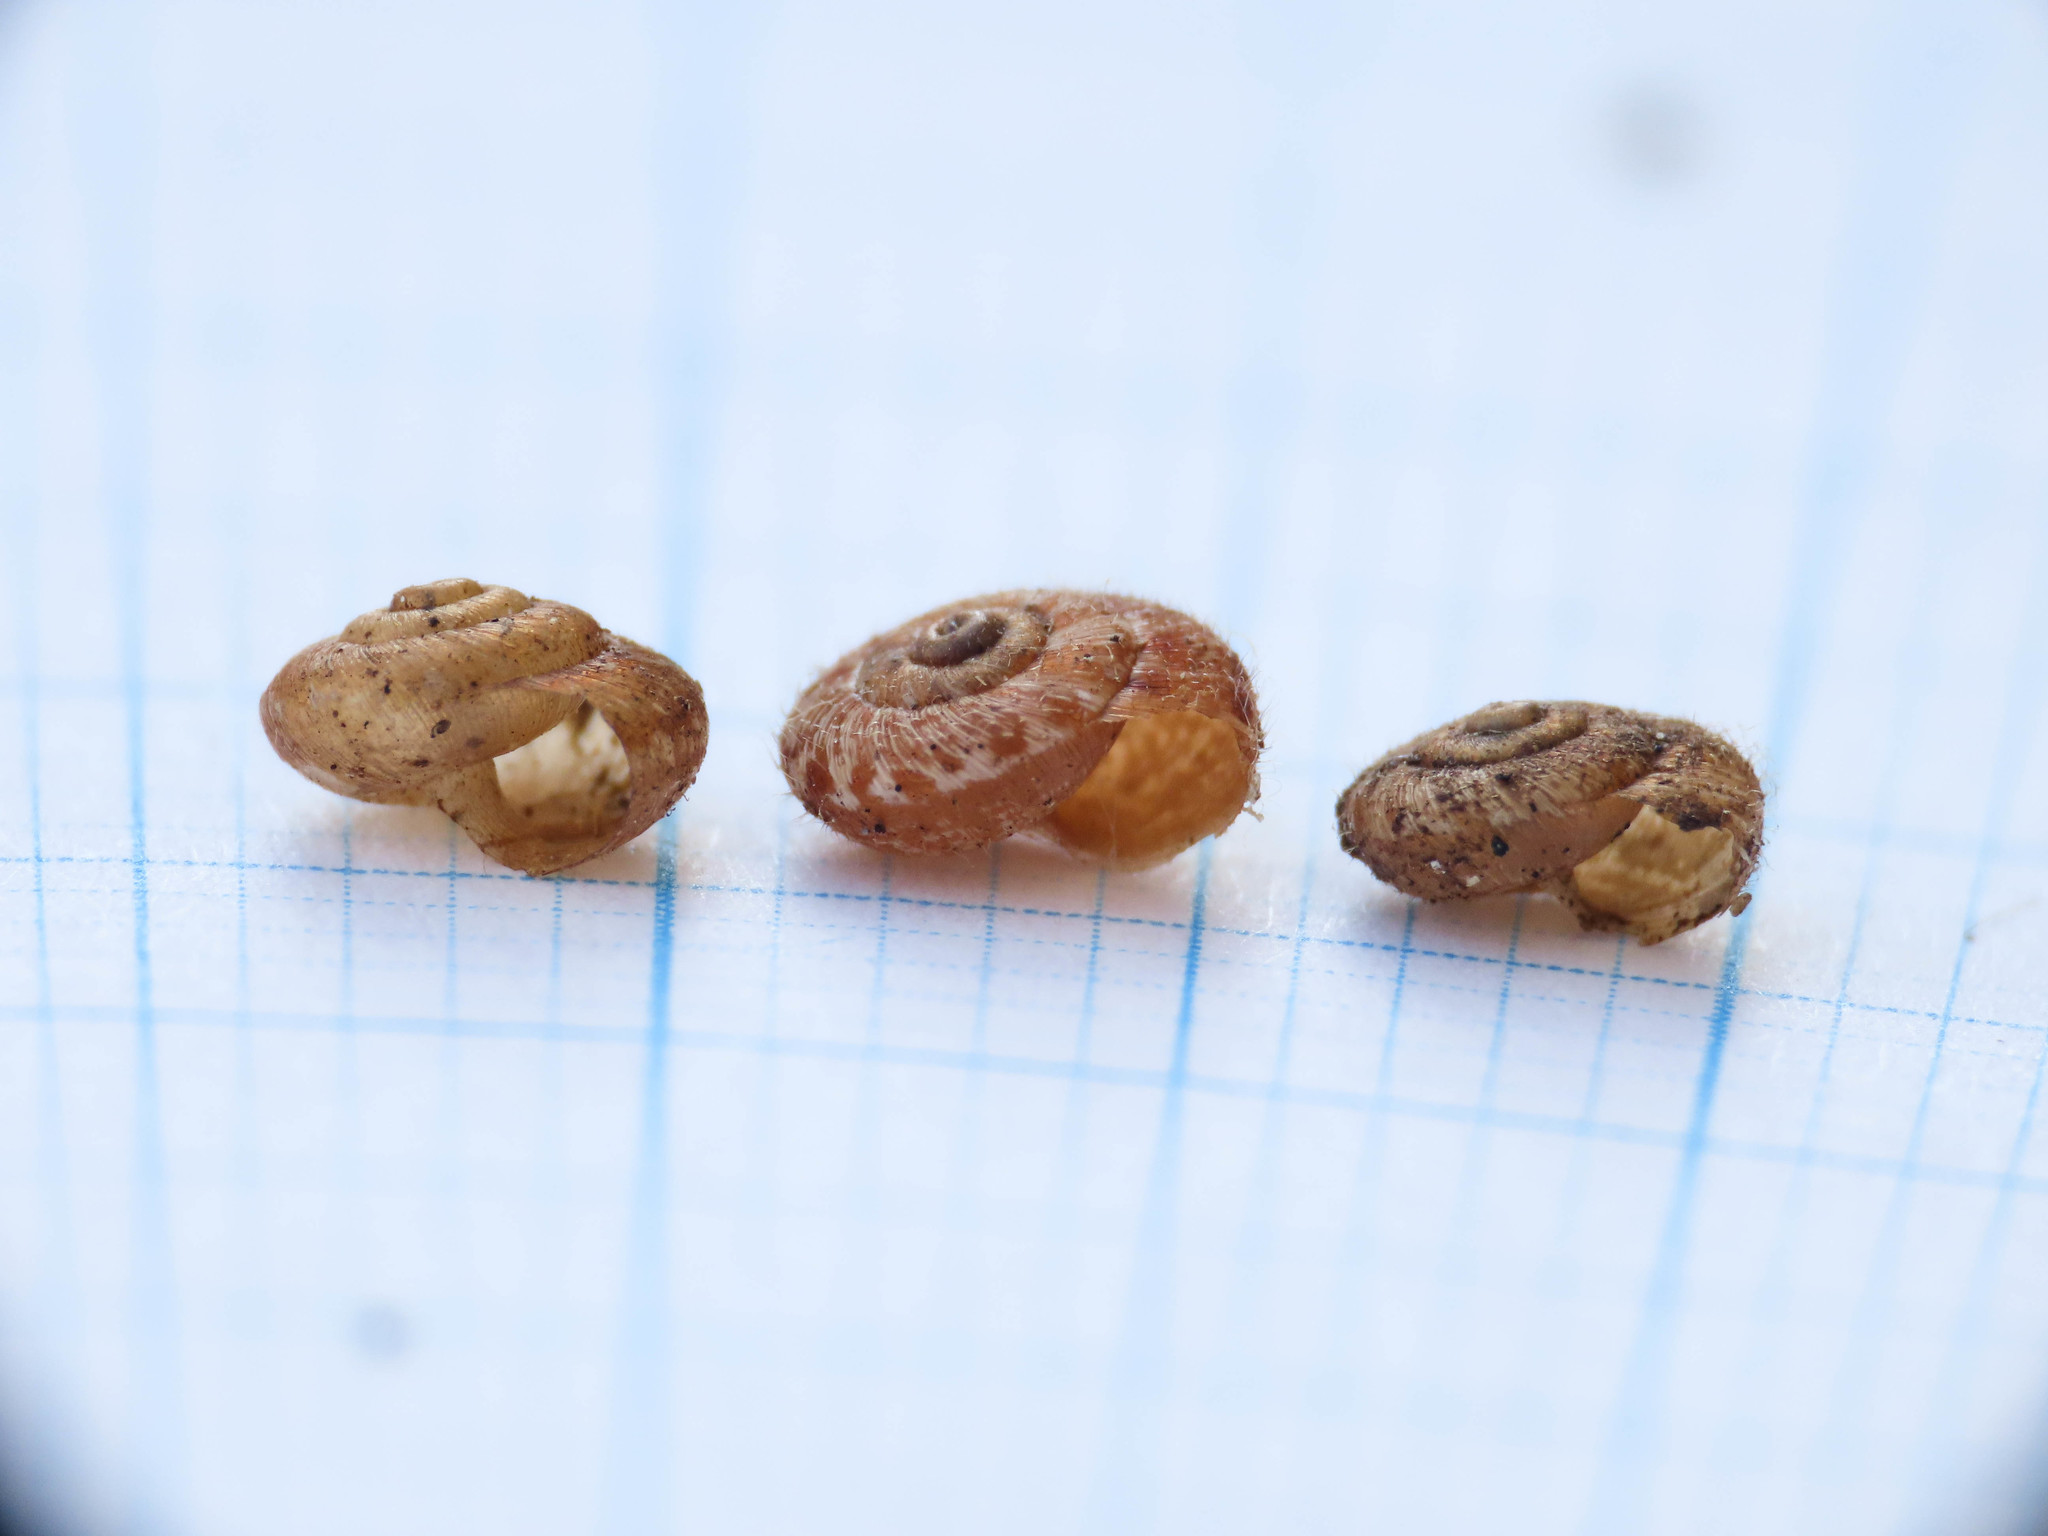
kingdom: Animalia
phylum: Mollusca
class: Gastropoda
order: Stylommatophora
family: Geomitridae
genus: Xerotricha
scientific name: Xerotricha conspurcata
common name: Snail
